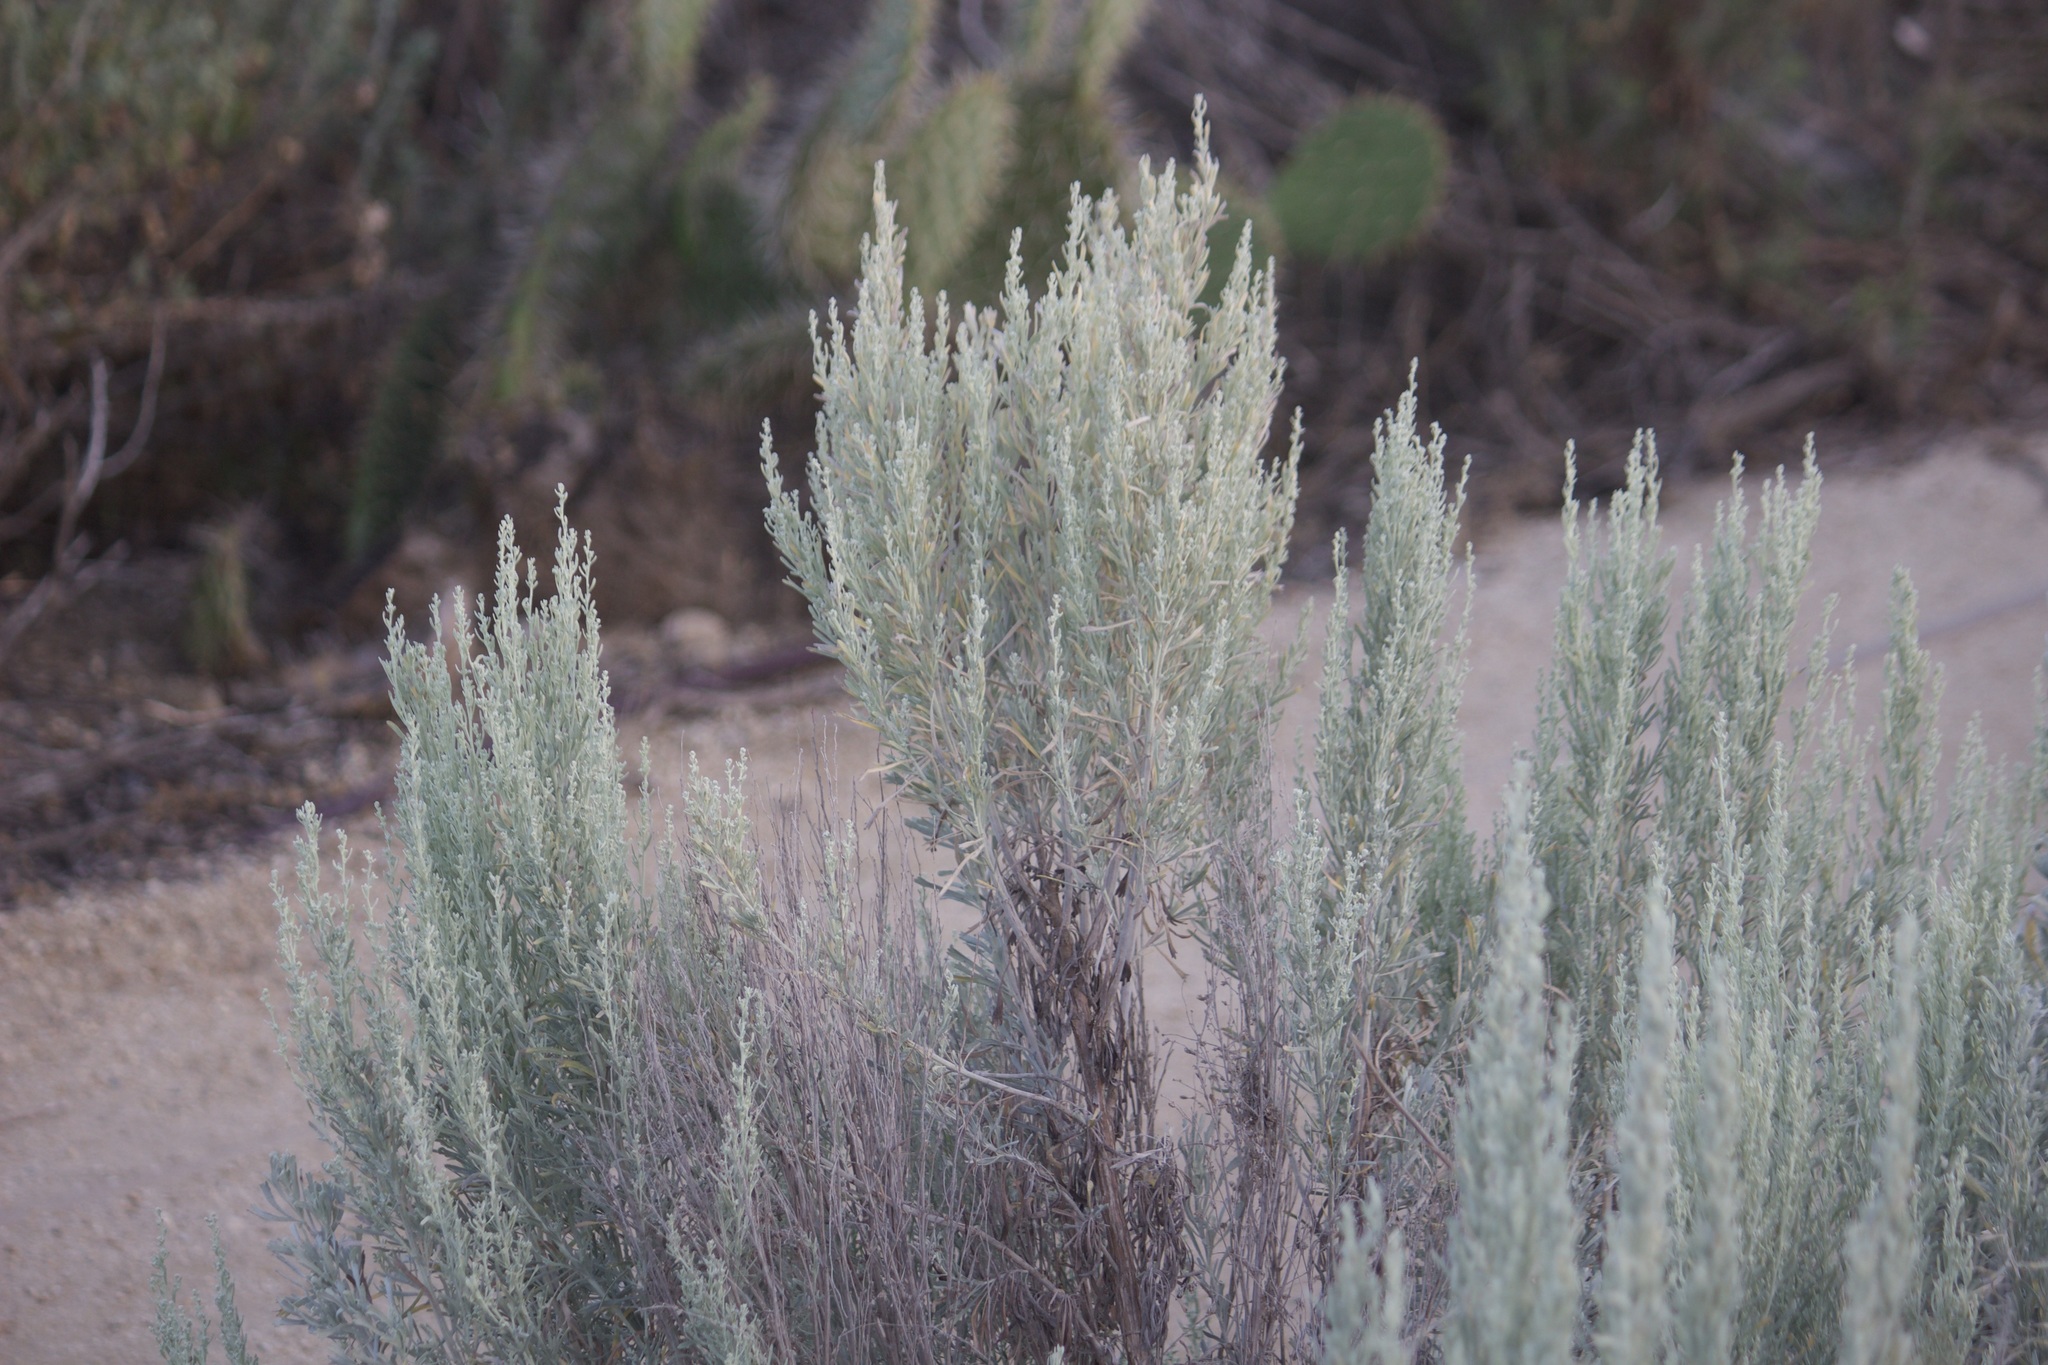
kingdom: Plantae
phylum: Tracheophyta
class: Magnoliopsida
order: Asterales
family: Asteraceae
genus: Artemisia
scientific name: Artemisia tridentata
